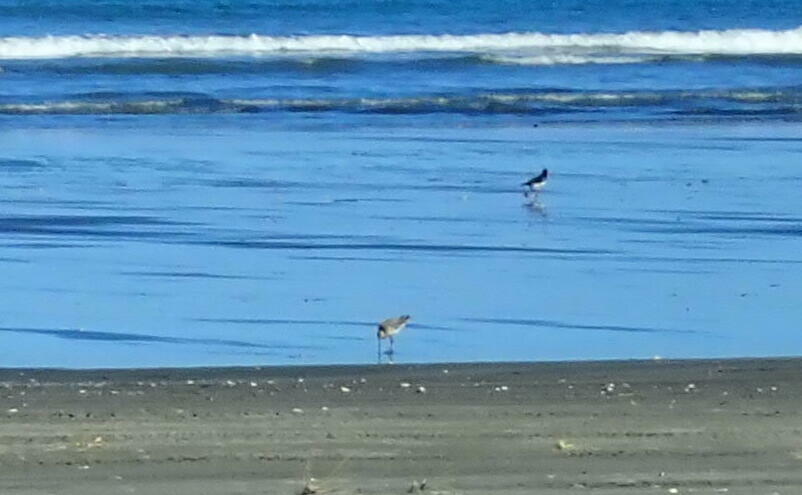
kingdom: Animalia
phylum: Chordata
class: Aves
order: Charadriiformes
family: Scolopacidae
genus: Limosa
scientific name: Limosa lapponica
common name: Bar-tailed godwit
